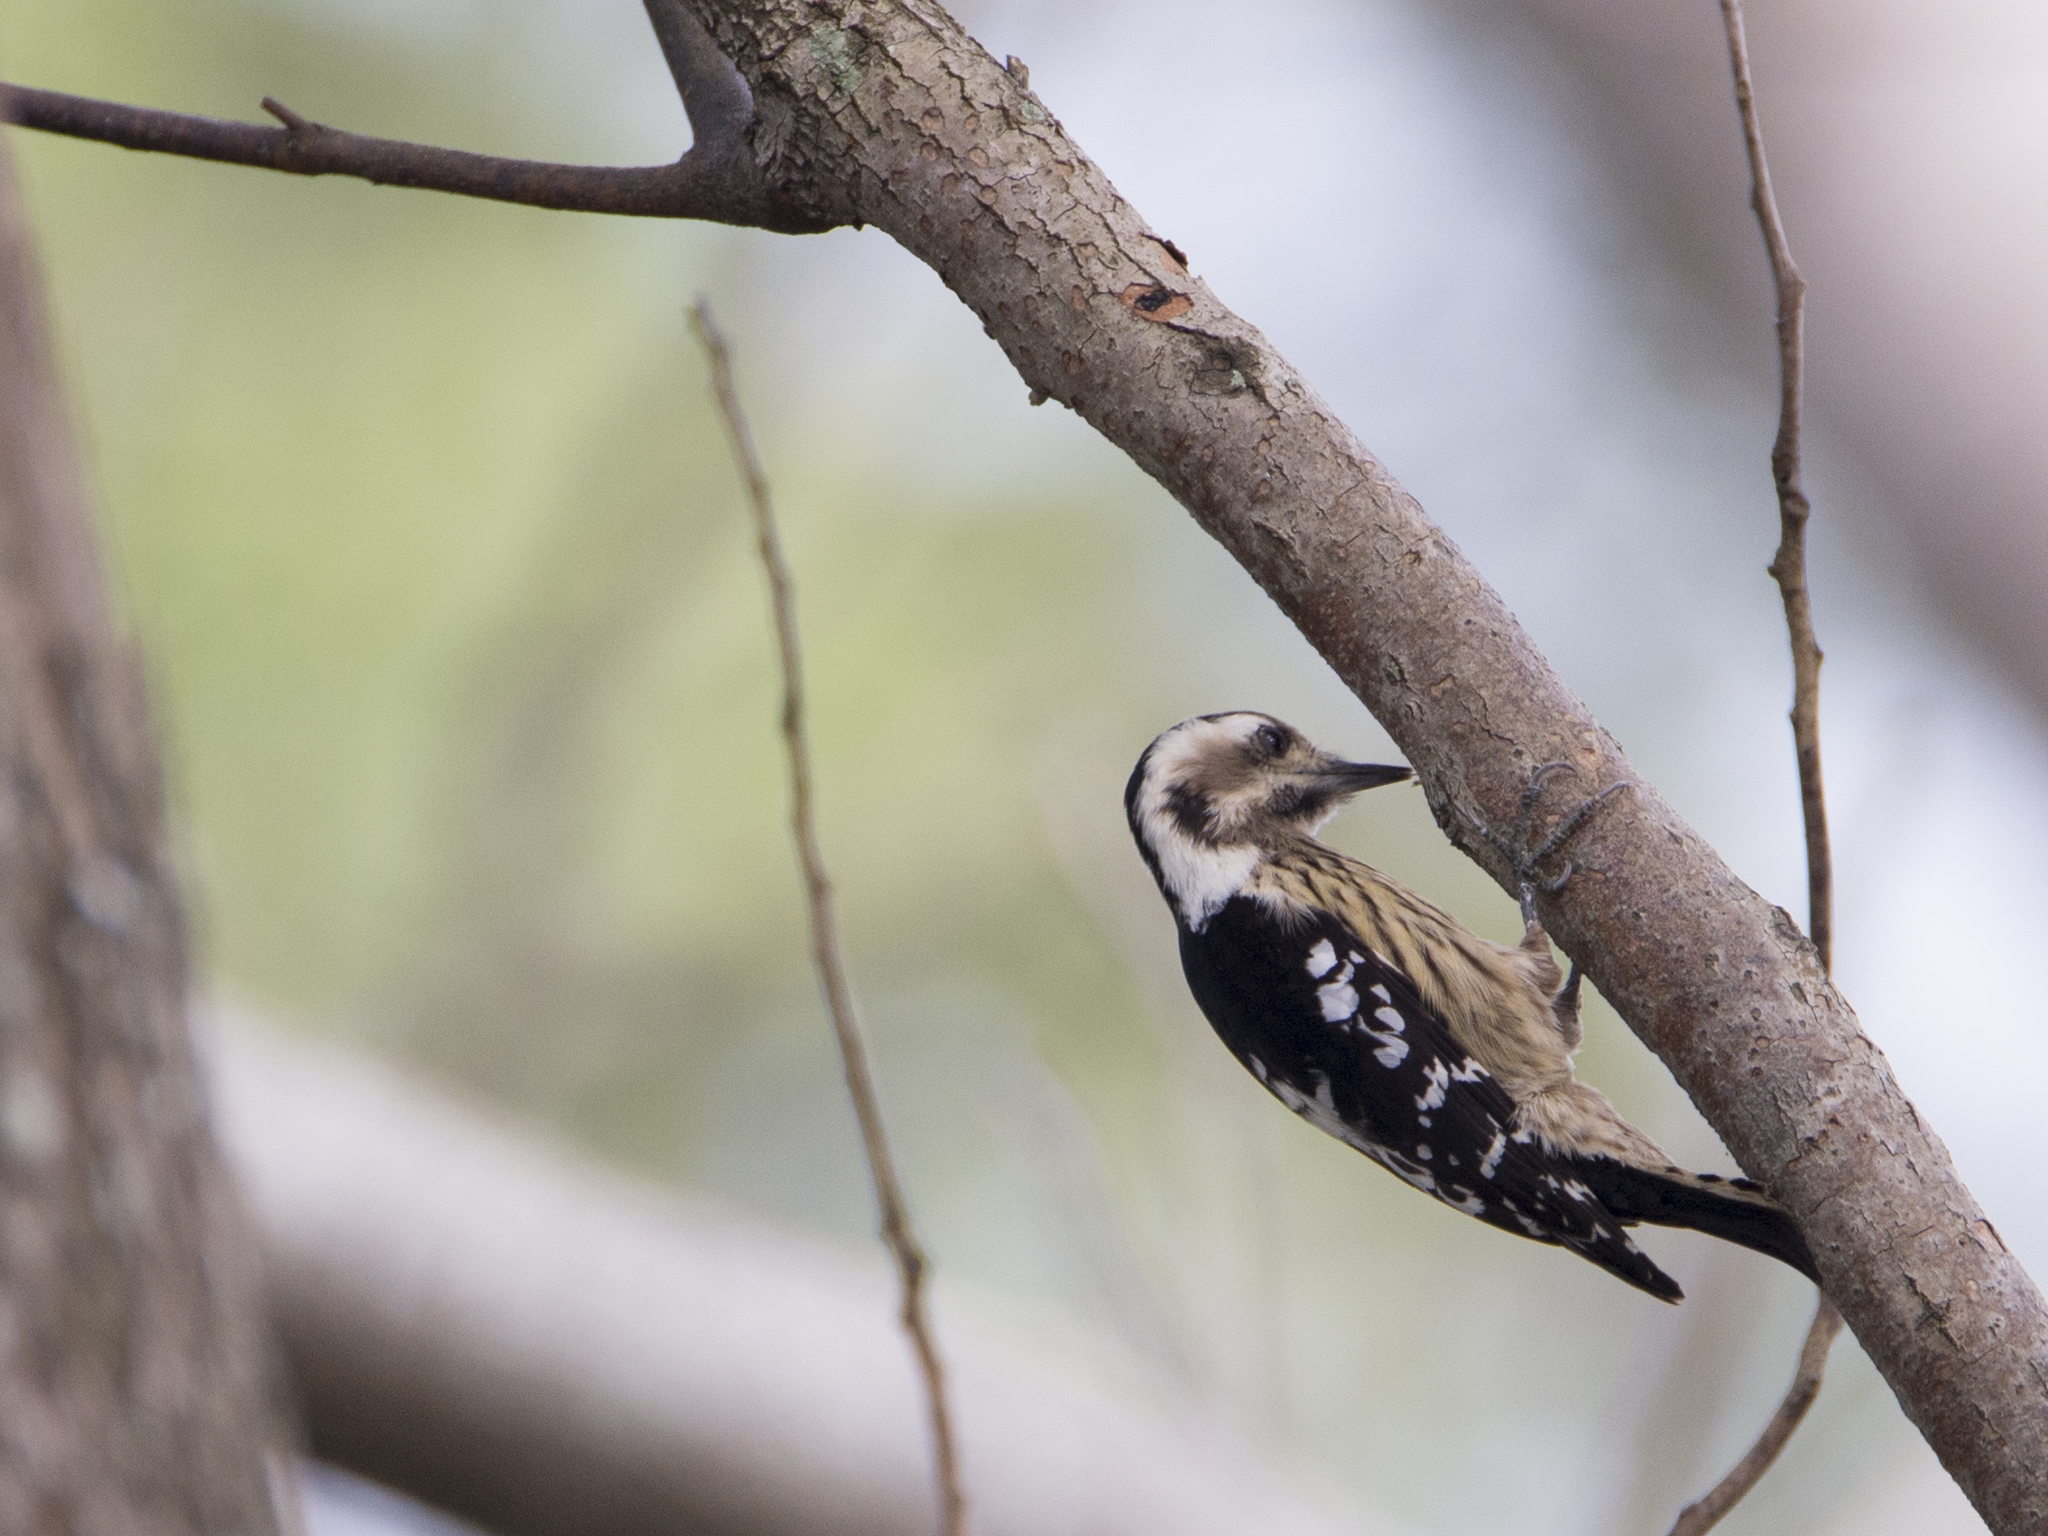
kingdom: Animalia
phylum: Chordata
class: Aves
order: Piciformes
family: Picidae
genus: Yungipicus
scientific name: Yungipicus canicapillus
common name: Grey-capped pygmy woodpecker
